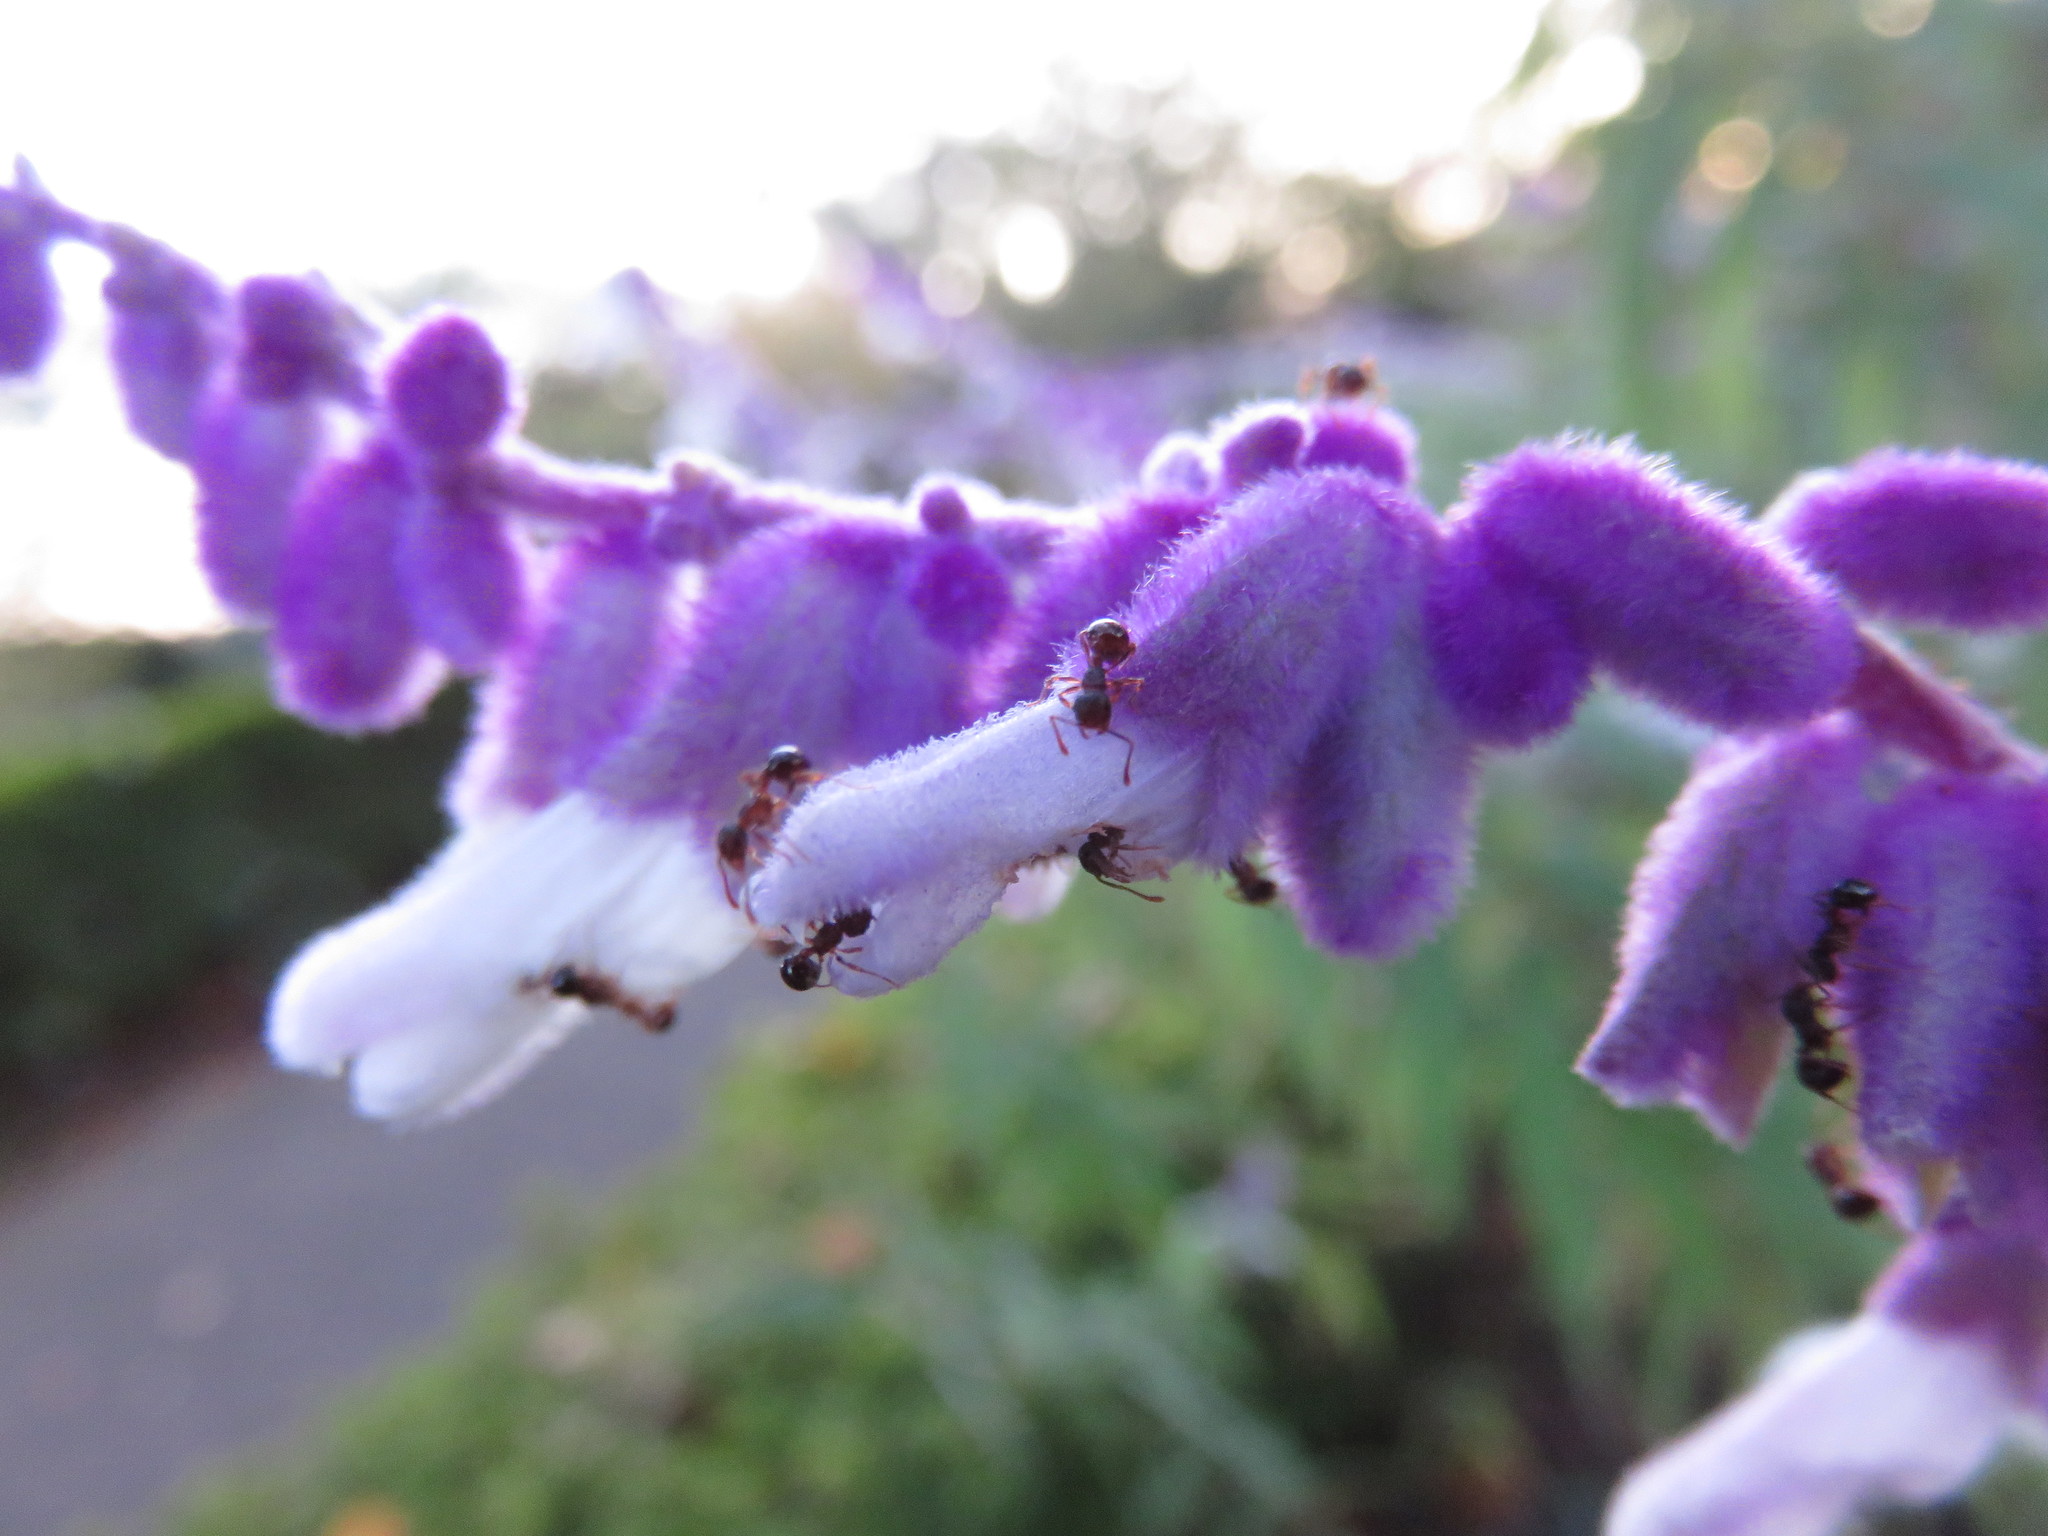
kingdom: Animalia
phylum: Arthropoda
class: Insecta
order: Hymenoptera
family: Formicidae
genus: Pristomyrmex
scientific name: Pristomyrmex punctatus
